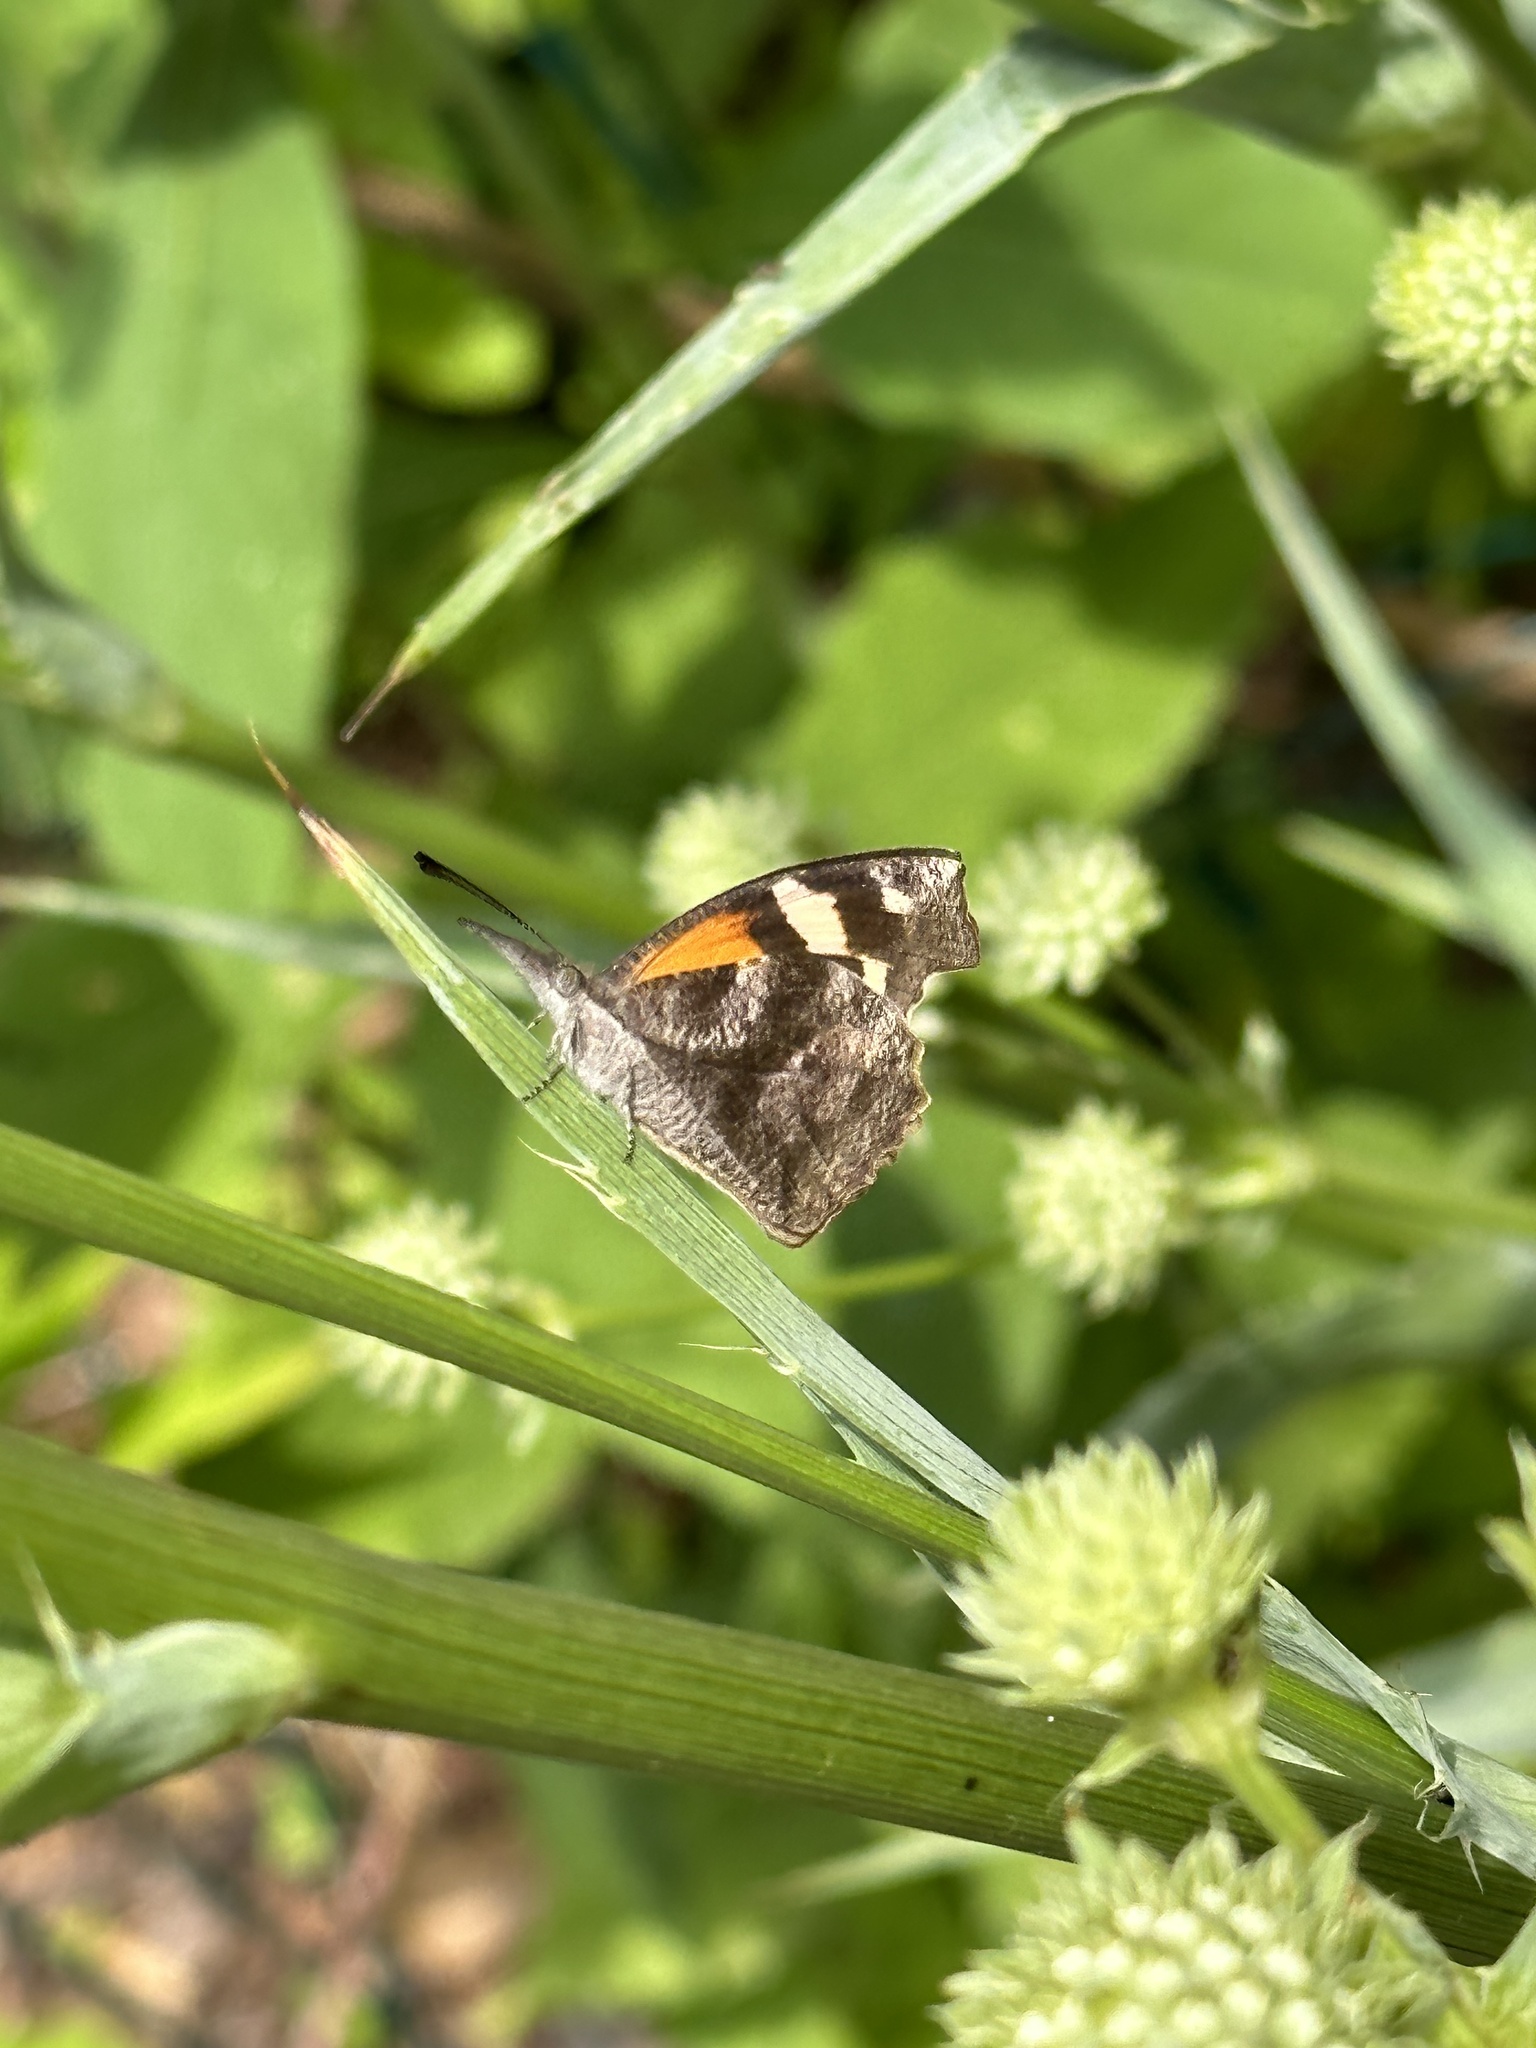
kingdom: Animalia
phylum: Arthropoda
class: Insecta
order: Lepidoptera
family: Nymphalidae
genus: Libytheana
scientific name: Libytheana carinenta
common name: American snout
